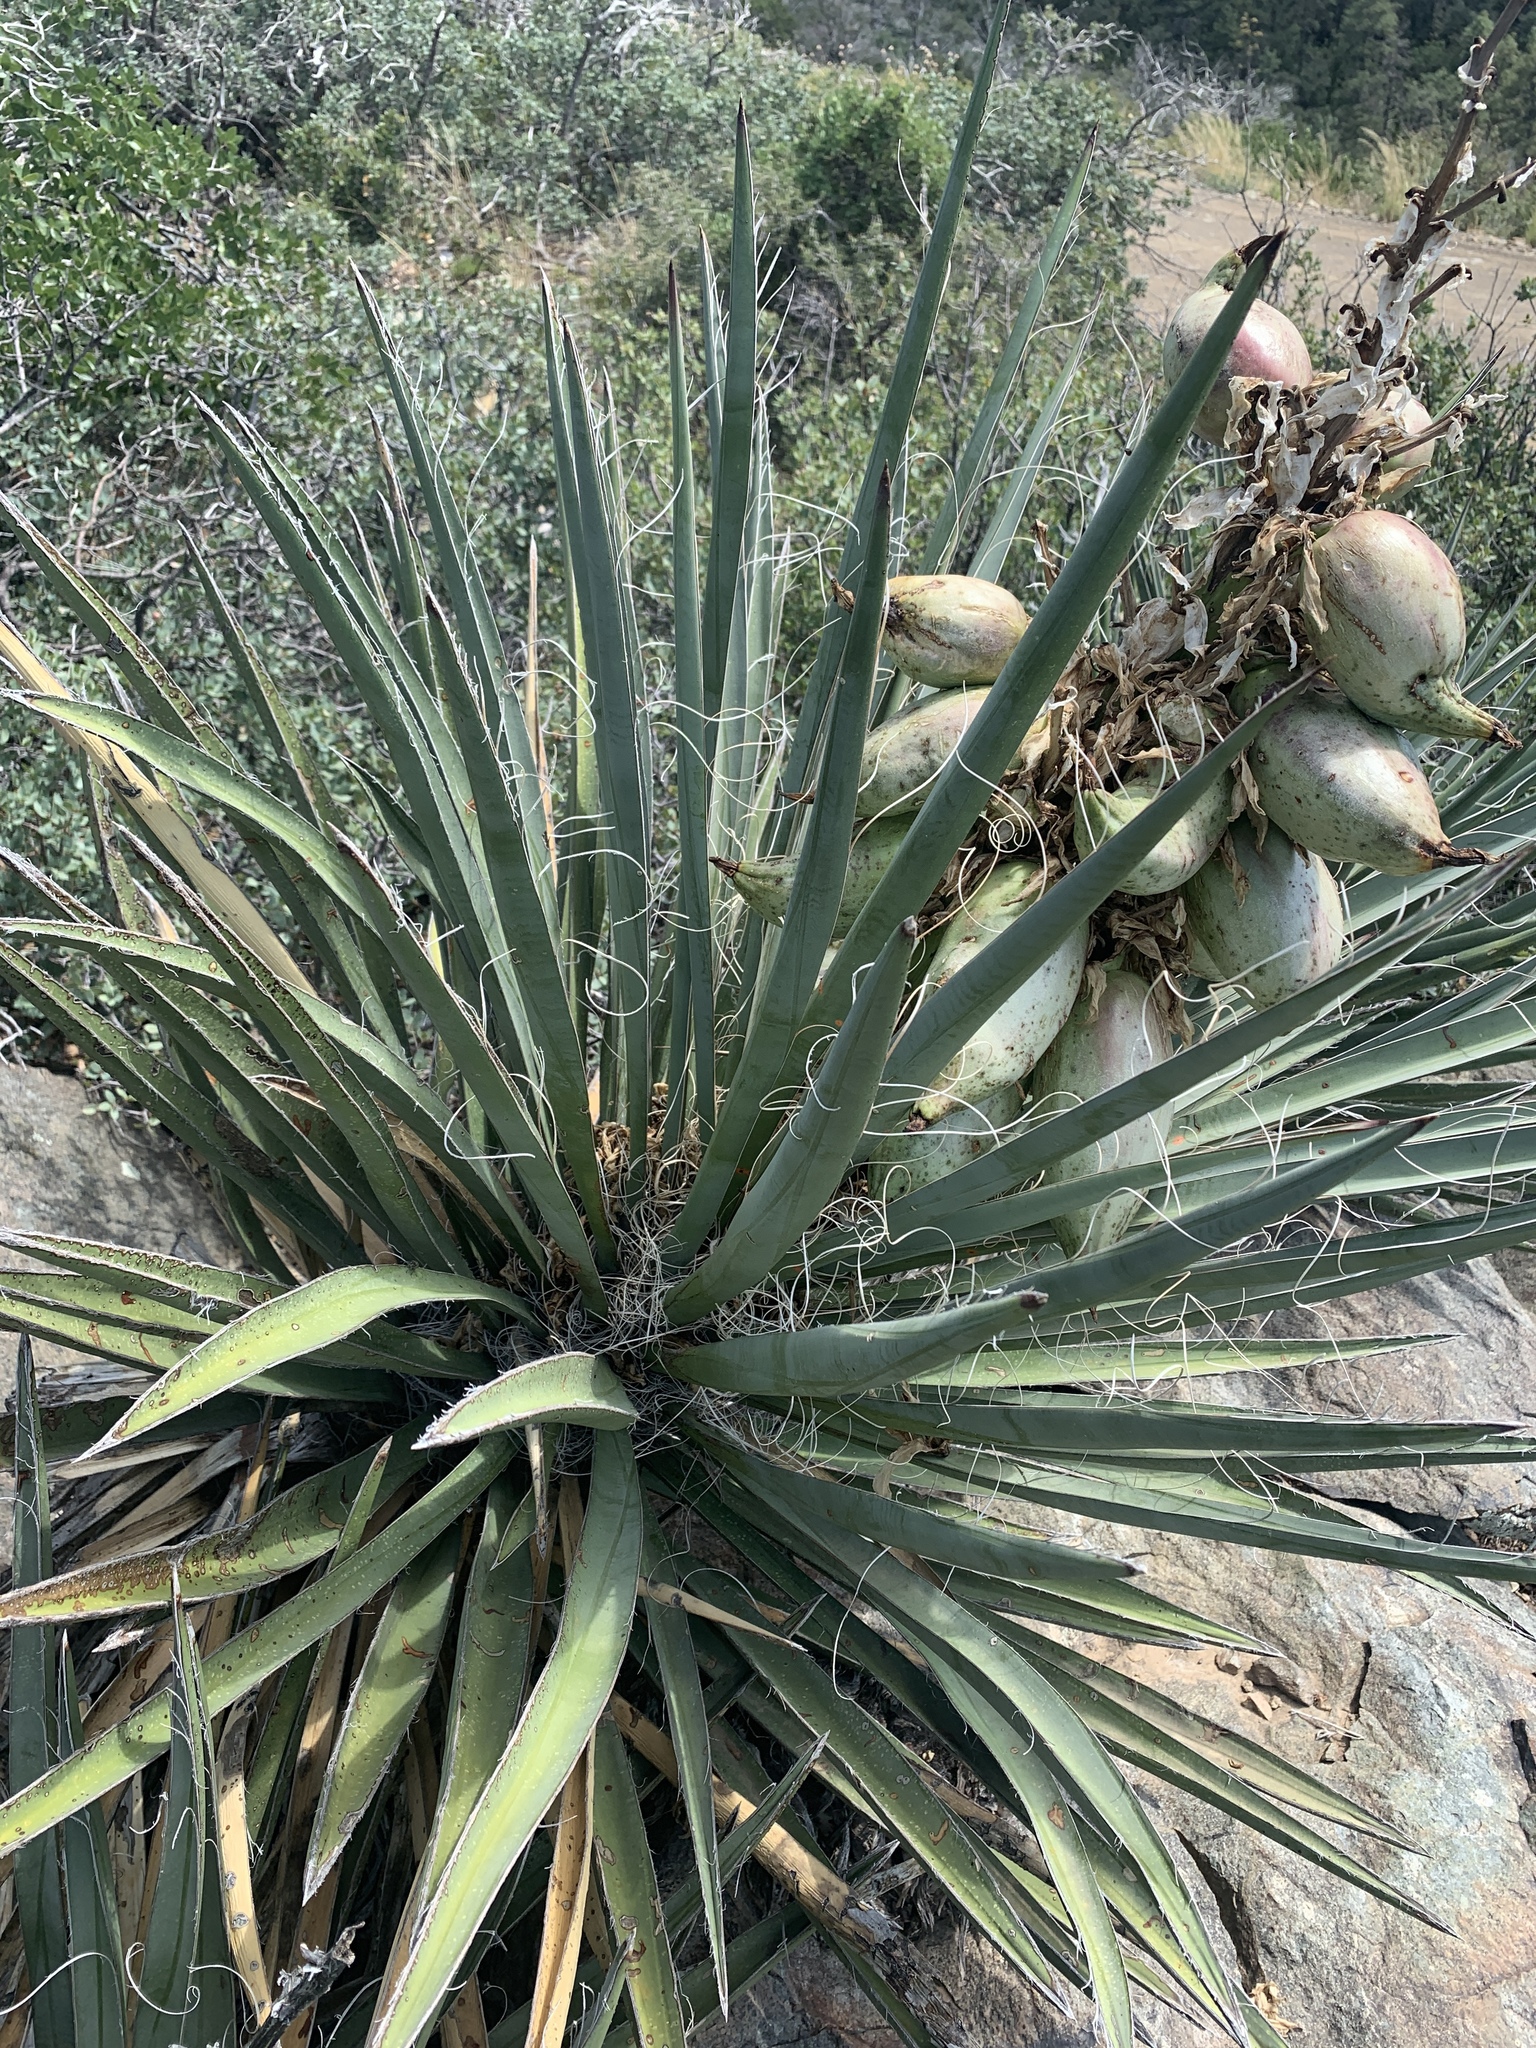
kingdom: Plantae
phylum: Tracheophyta
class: Liliopsida
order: Asparagales
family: Asparagaceae
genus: Yucca
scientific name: Yucca baccata
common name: Banana yucca
